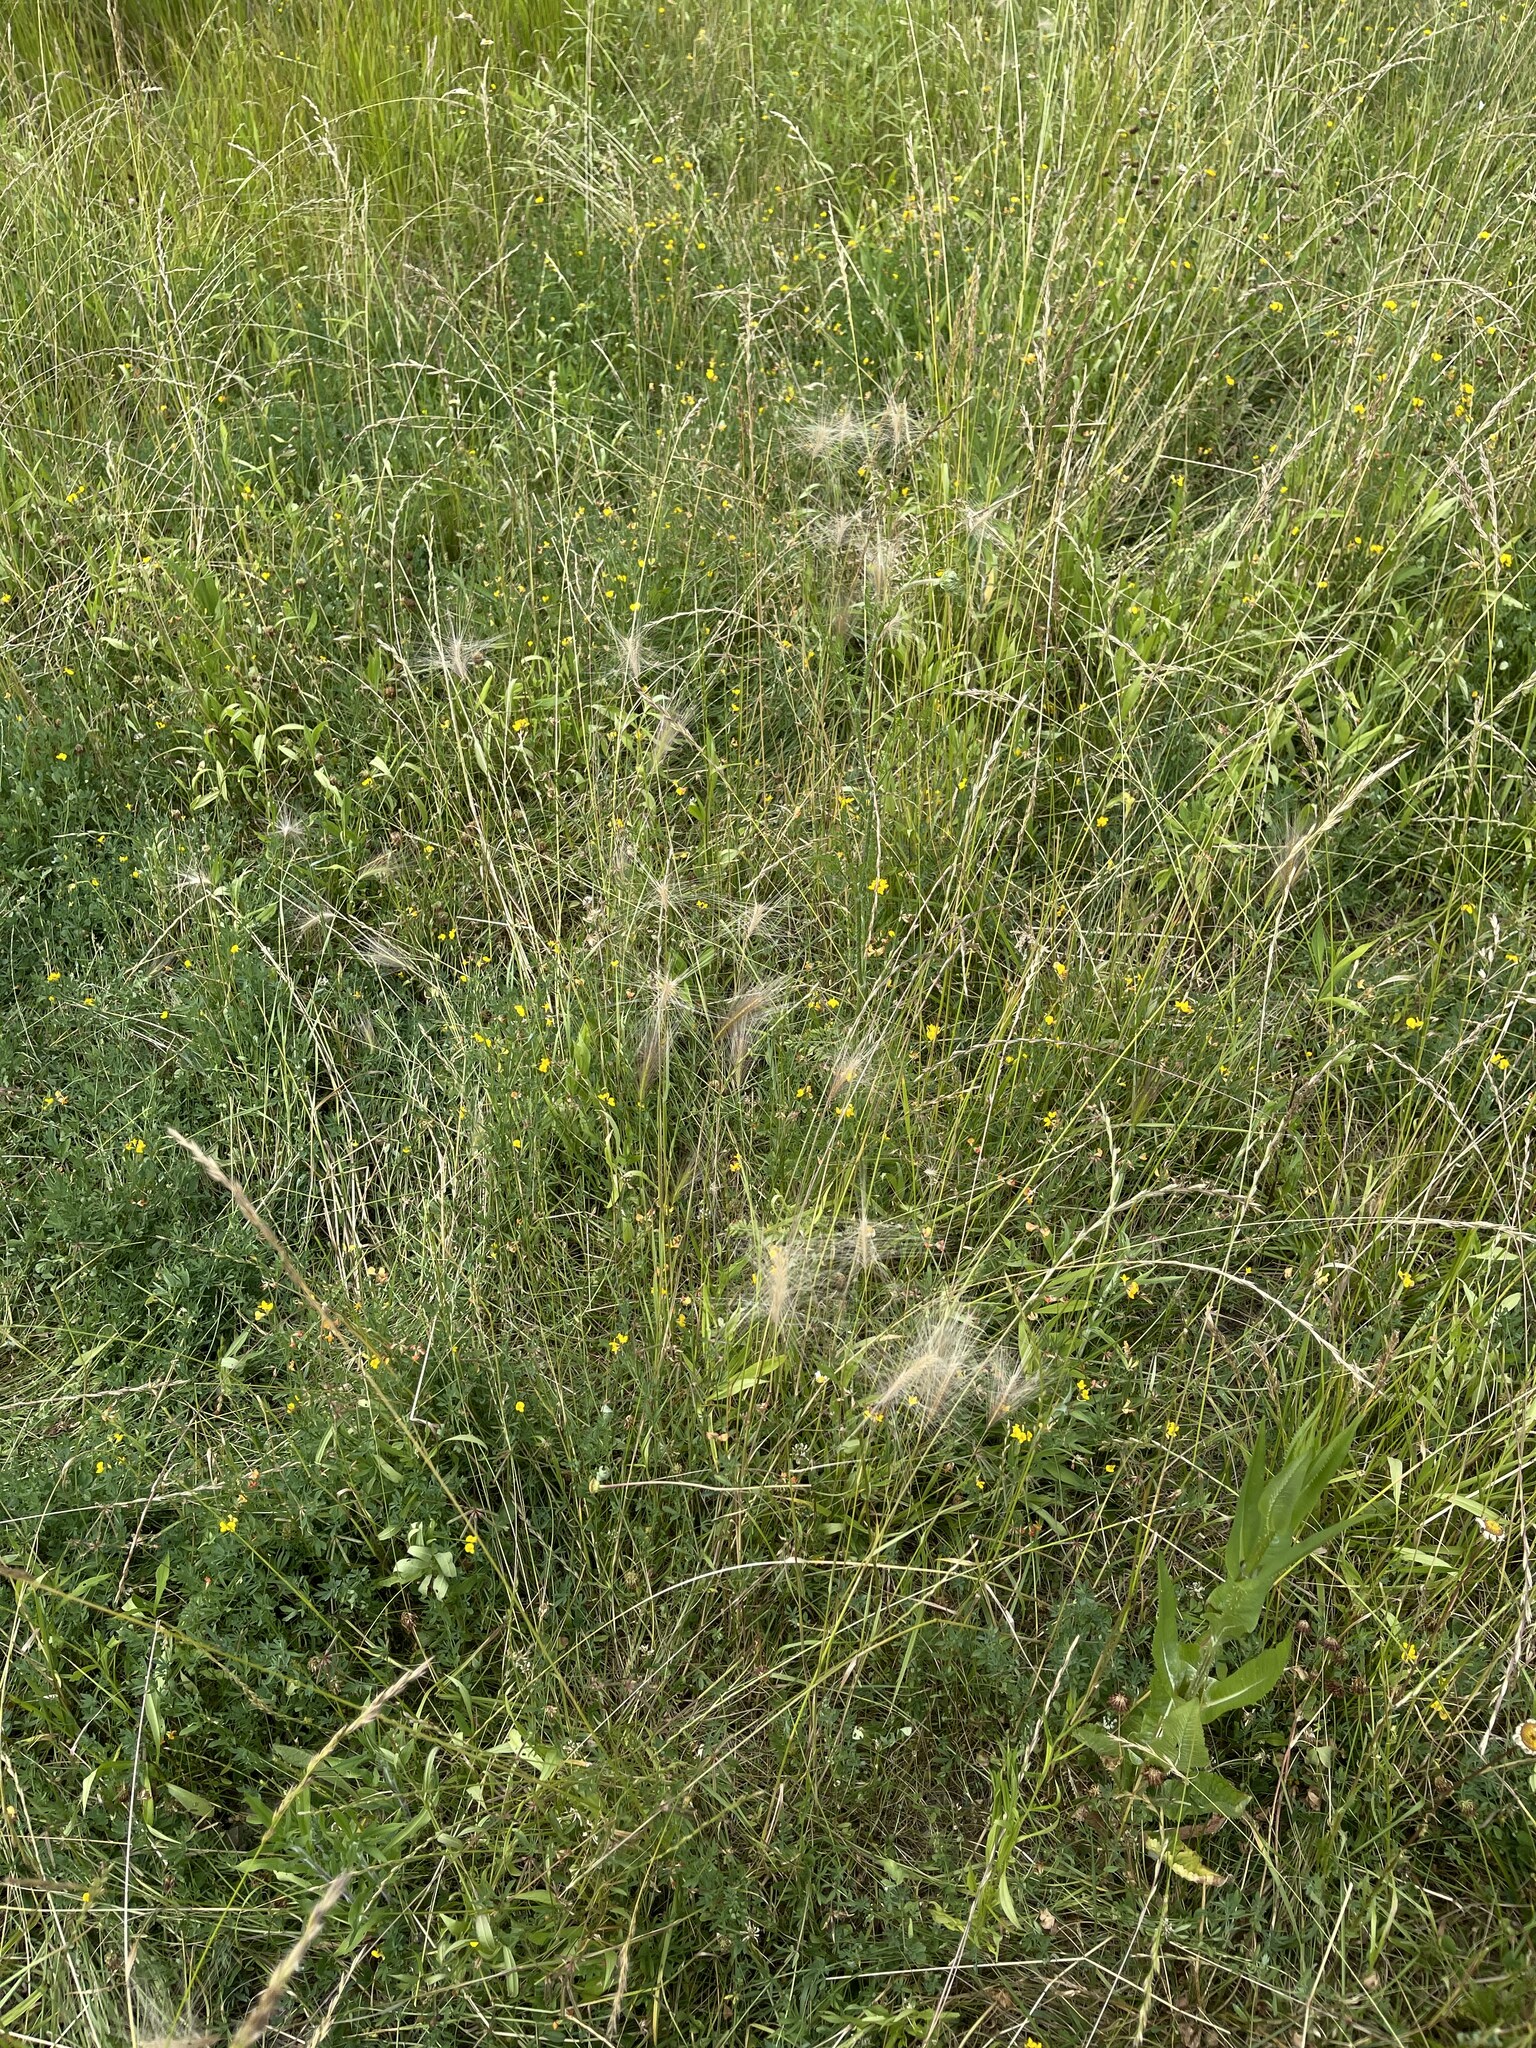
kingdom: Plantae
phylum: Tracheophyta
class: Liliopsida
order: Poales
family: Poaceae
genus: Hordeum
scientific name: Hordeum jubatum
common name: Foxtail barley
